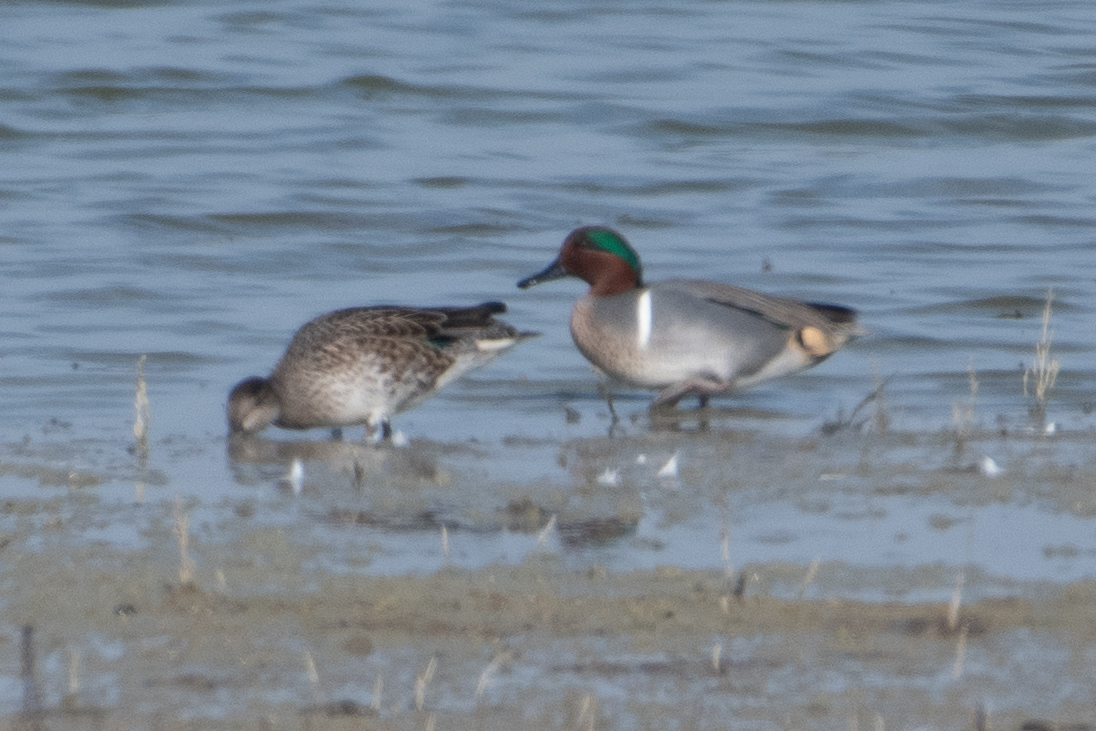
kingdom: Animalia
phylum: Chordata
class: Aves
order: Anseriformes
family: Anatidae
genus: Anas
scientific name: Anas crecca
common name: Eurasian teal
